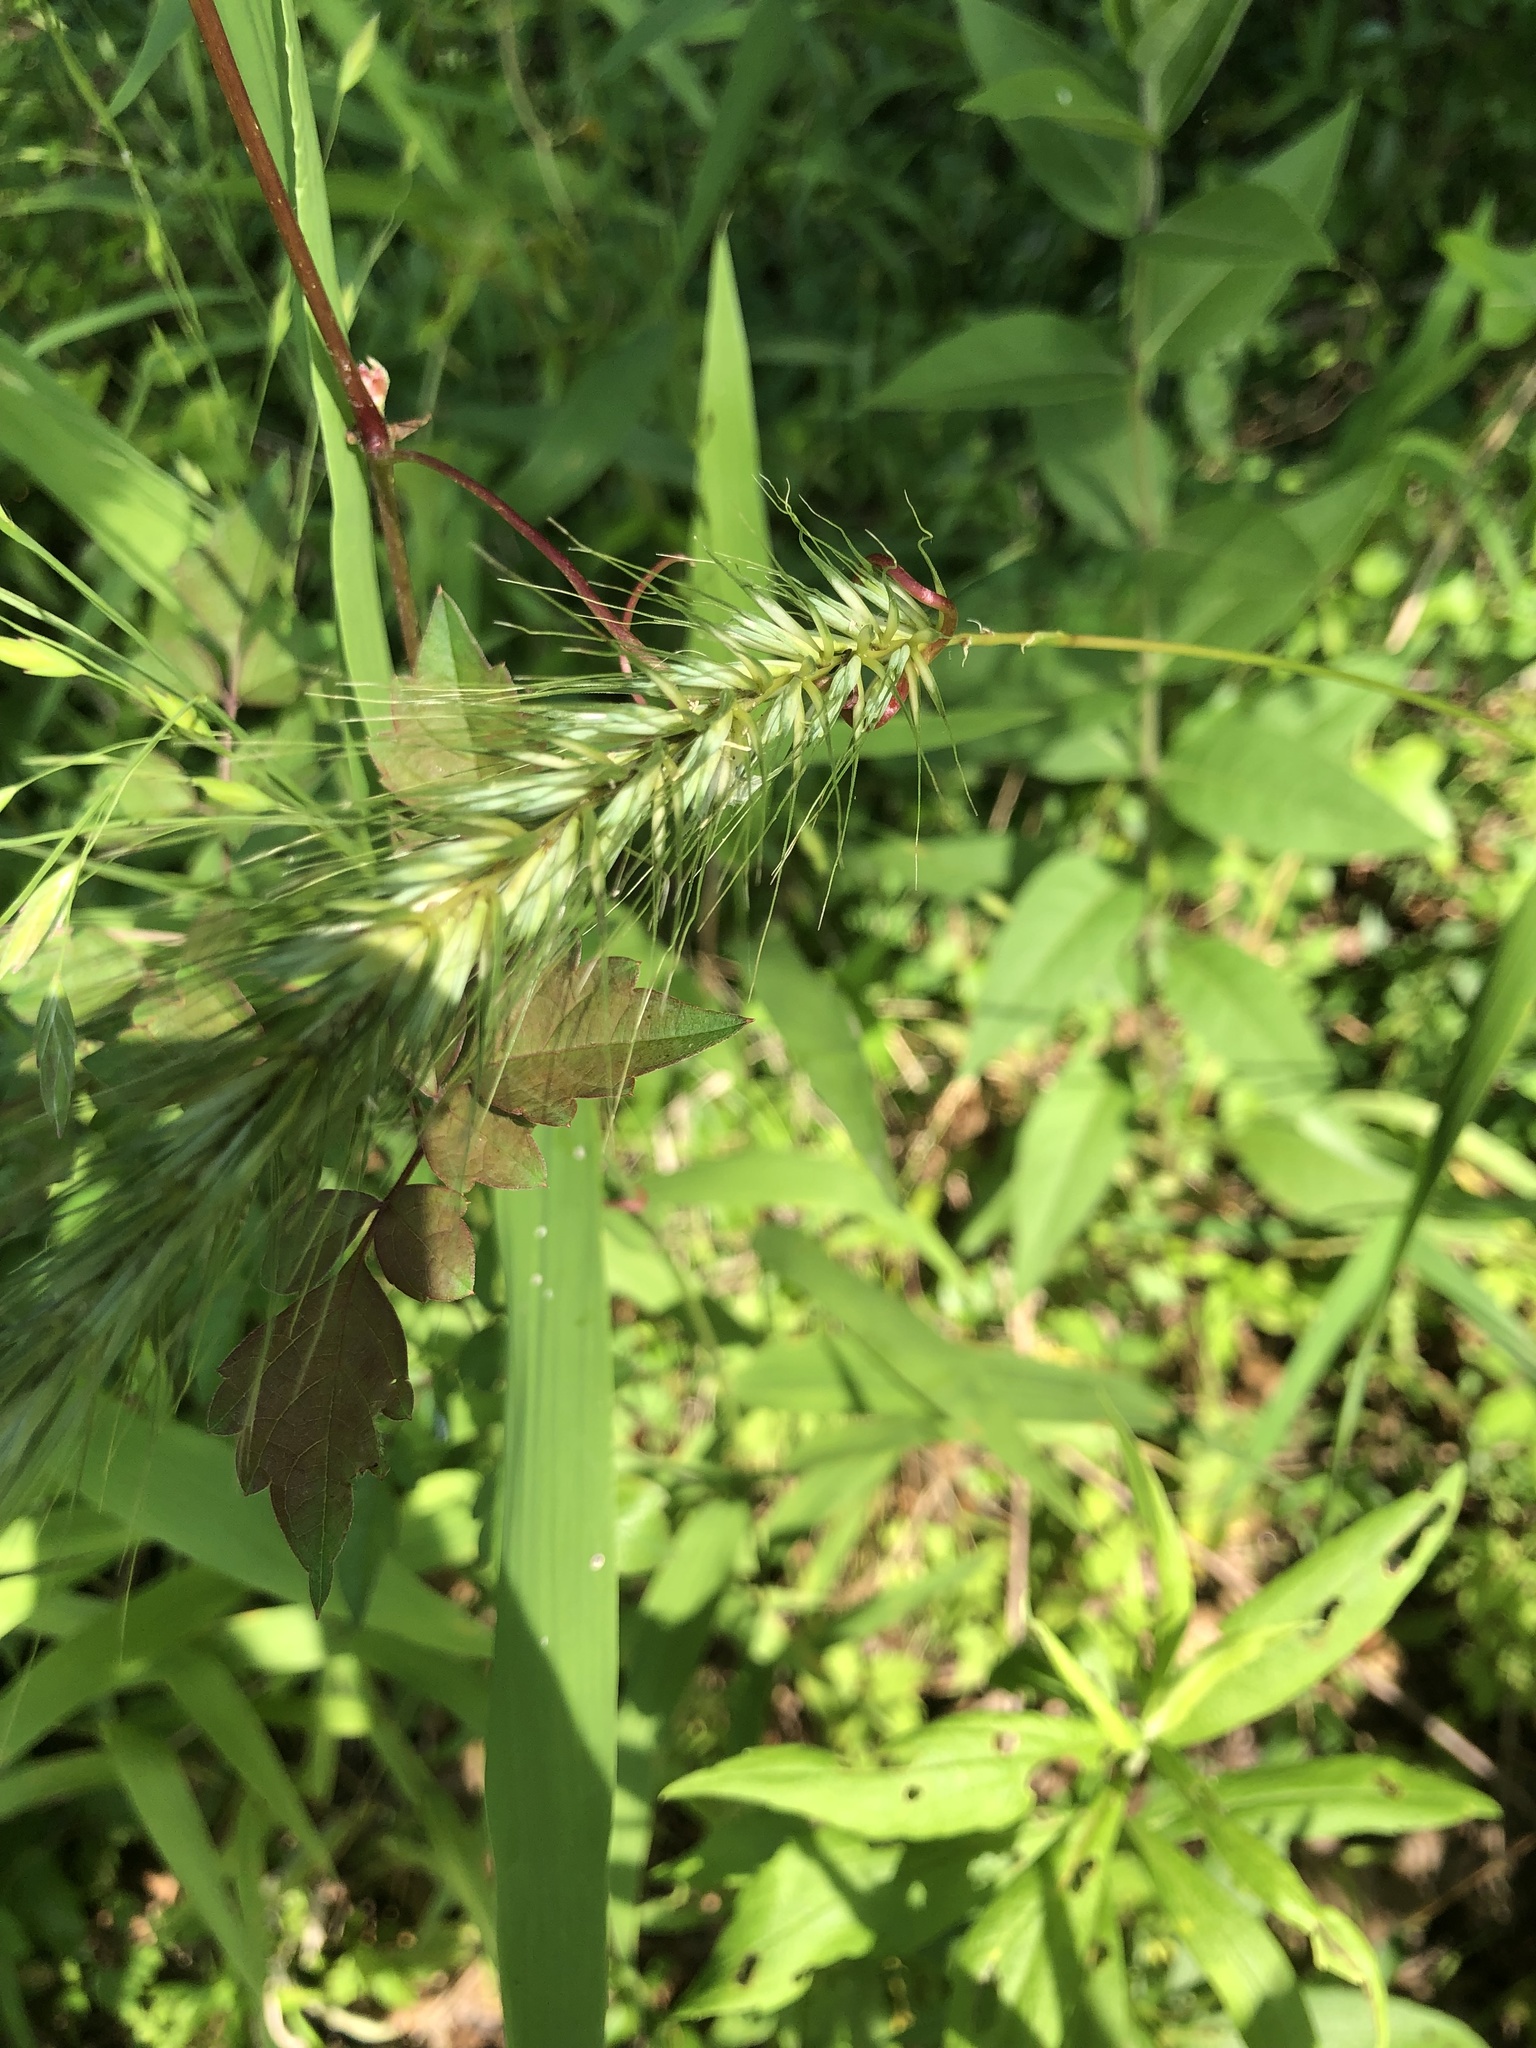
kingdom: Plantae
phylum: Tracheophyta
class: Liliopsida
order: Poales
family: Poaceae
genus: Elymus
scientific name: Elymus virginicus
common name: Common eastern wildrye
